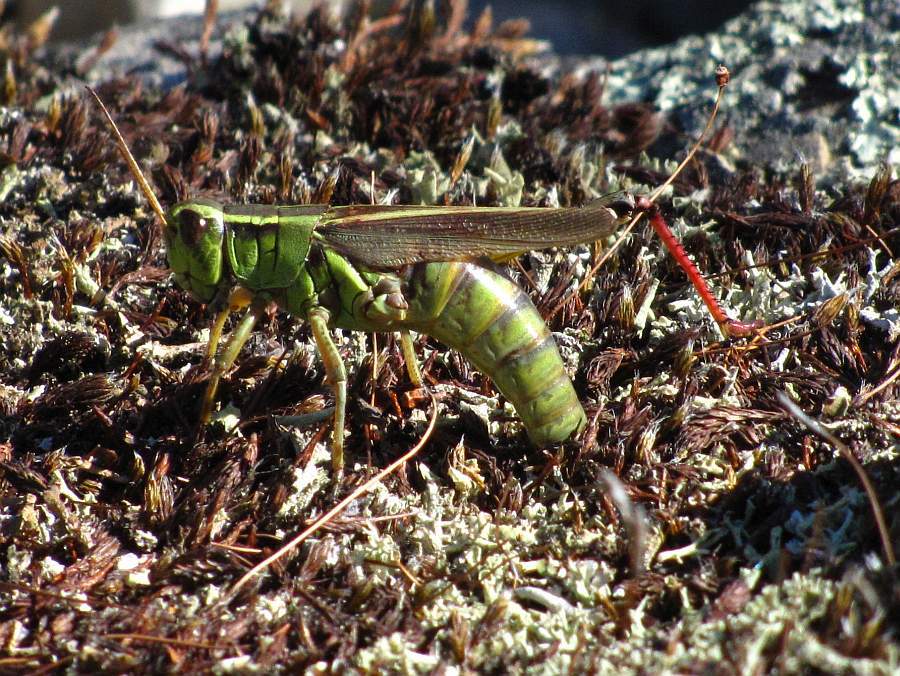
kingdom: Animalia
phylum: Arthropoda
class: Insecta
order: Orthoptera
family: Acrididae
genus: Melanoplus
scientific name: Melanoplus bivittatus
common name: Two-striped grasshopper
